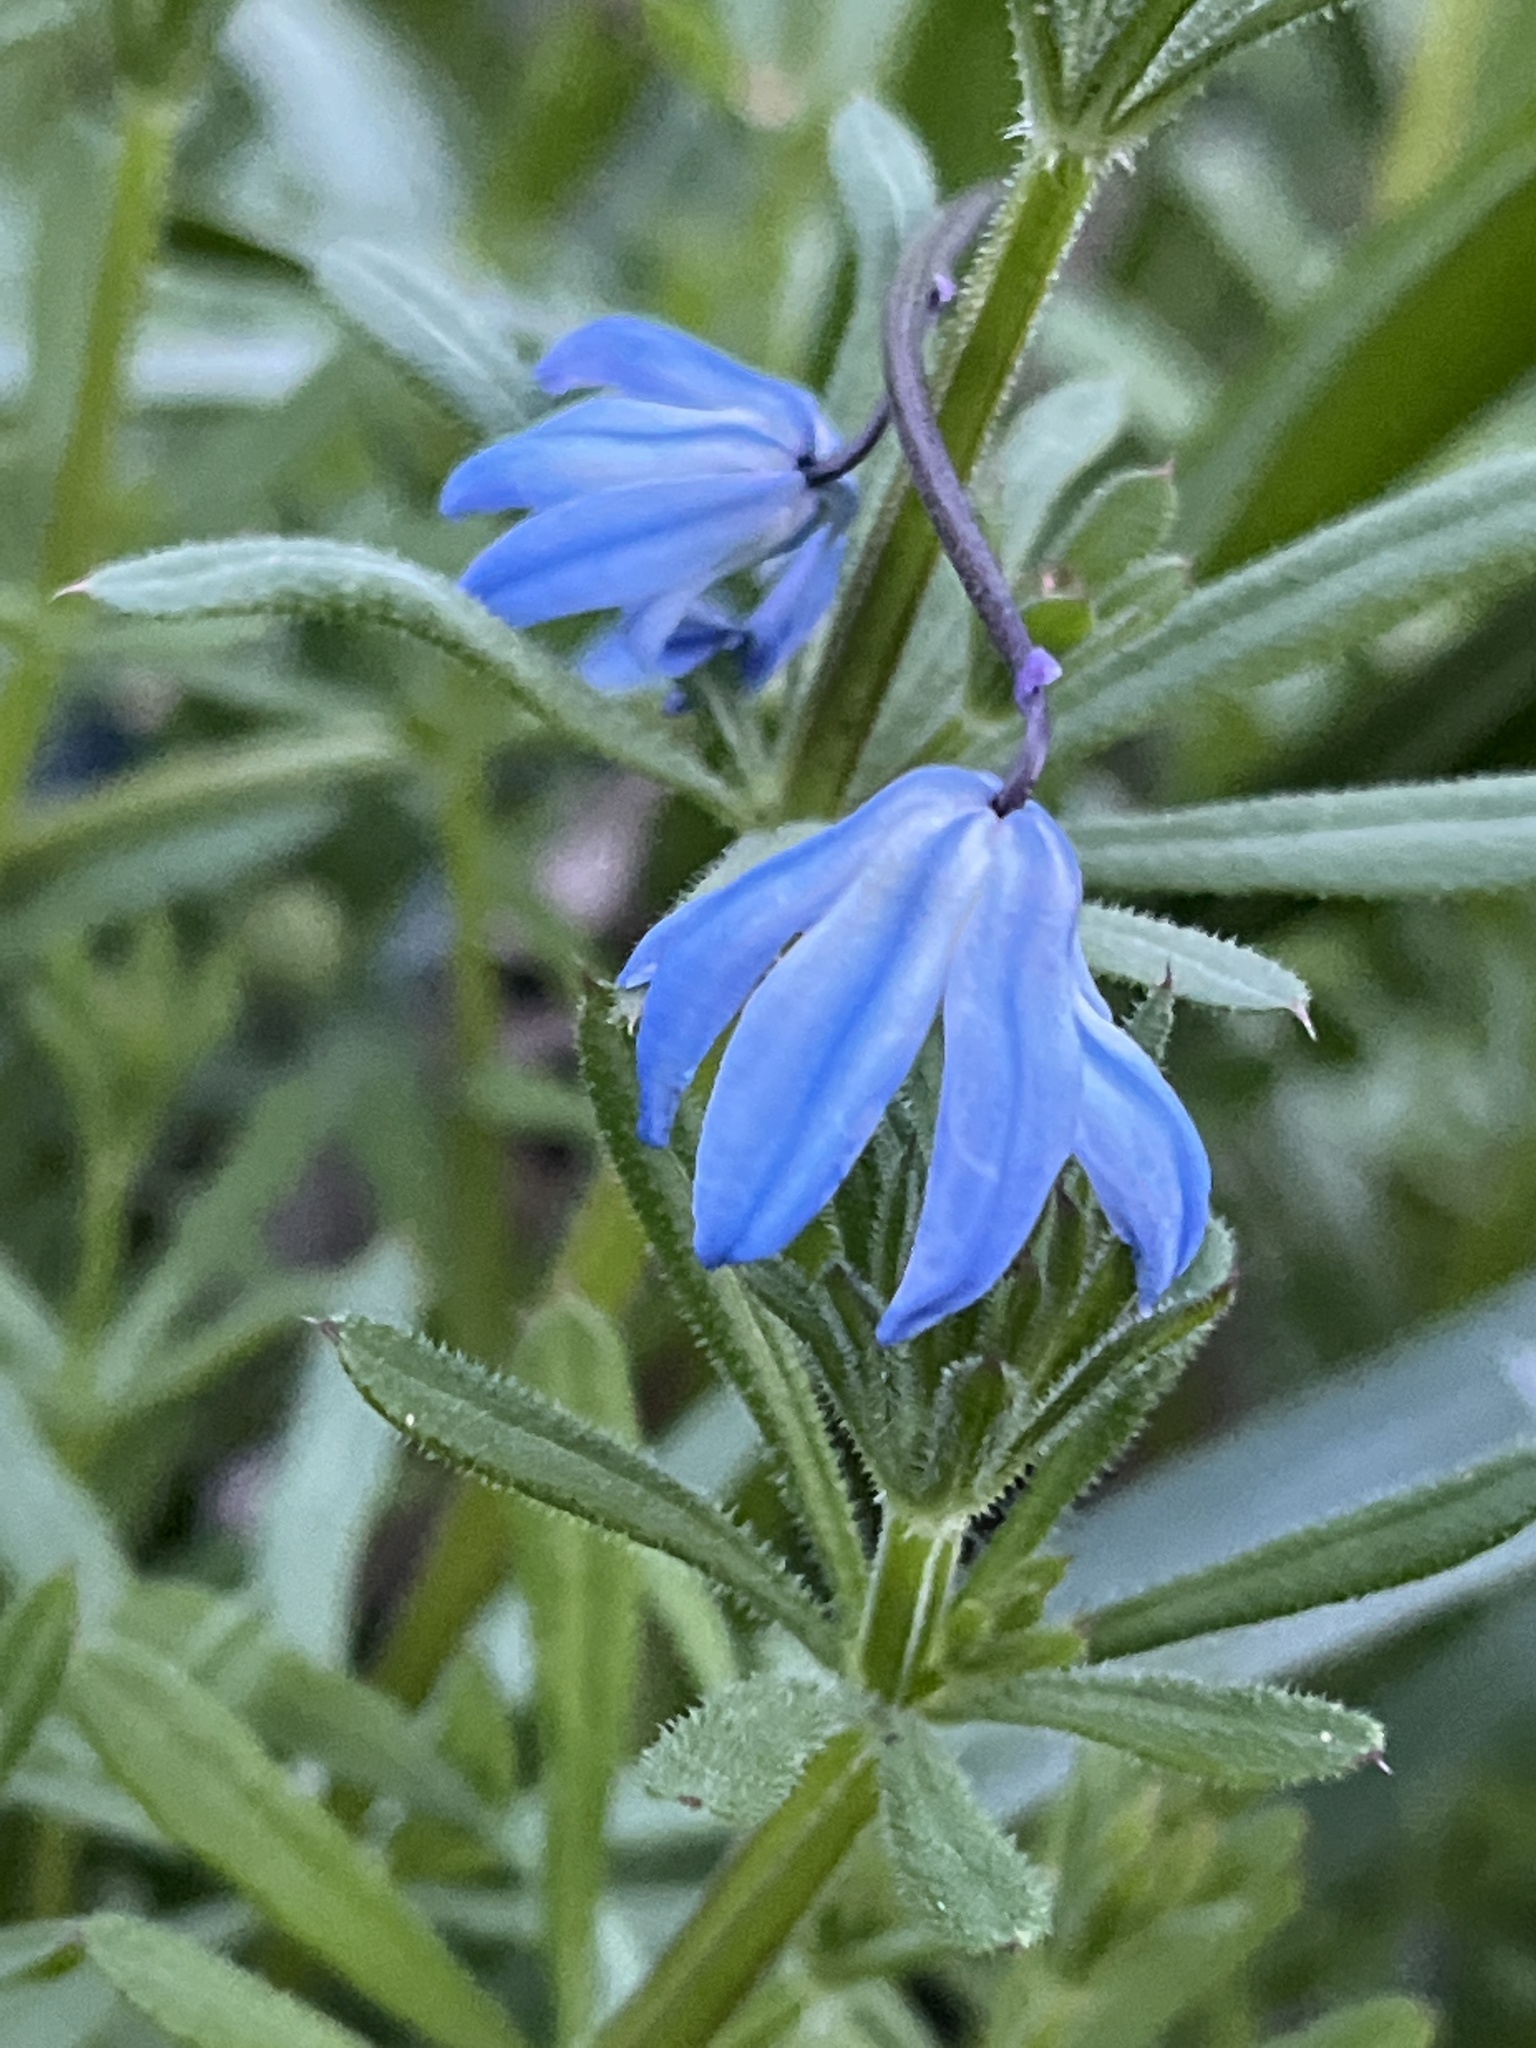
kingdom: Plantae
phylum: Tracheophyta
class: Liliopsida
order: Asparagales
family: Asparagaceae
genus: Scilla
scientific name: Scilla siberica
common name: Siberian squill
